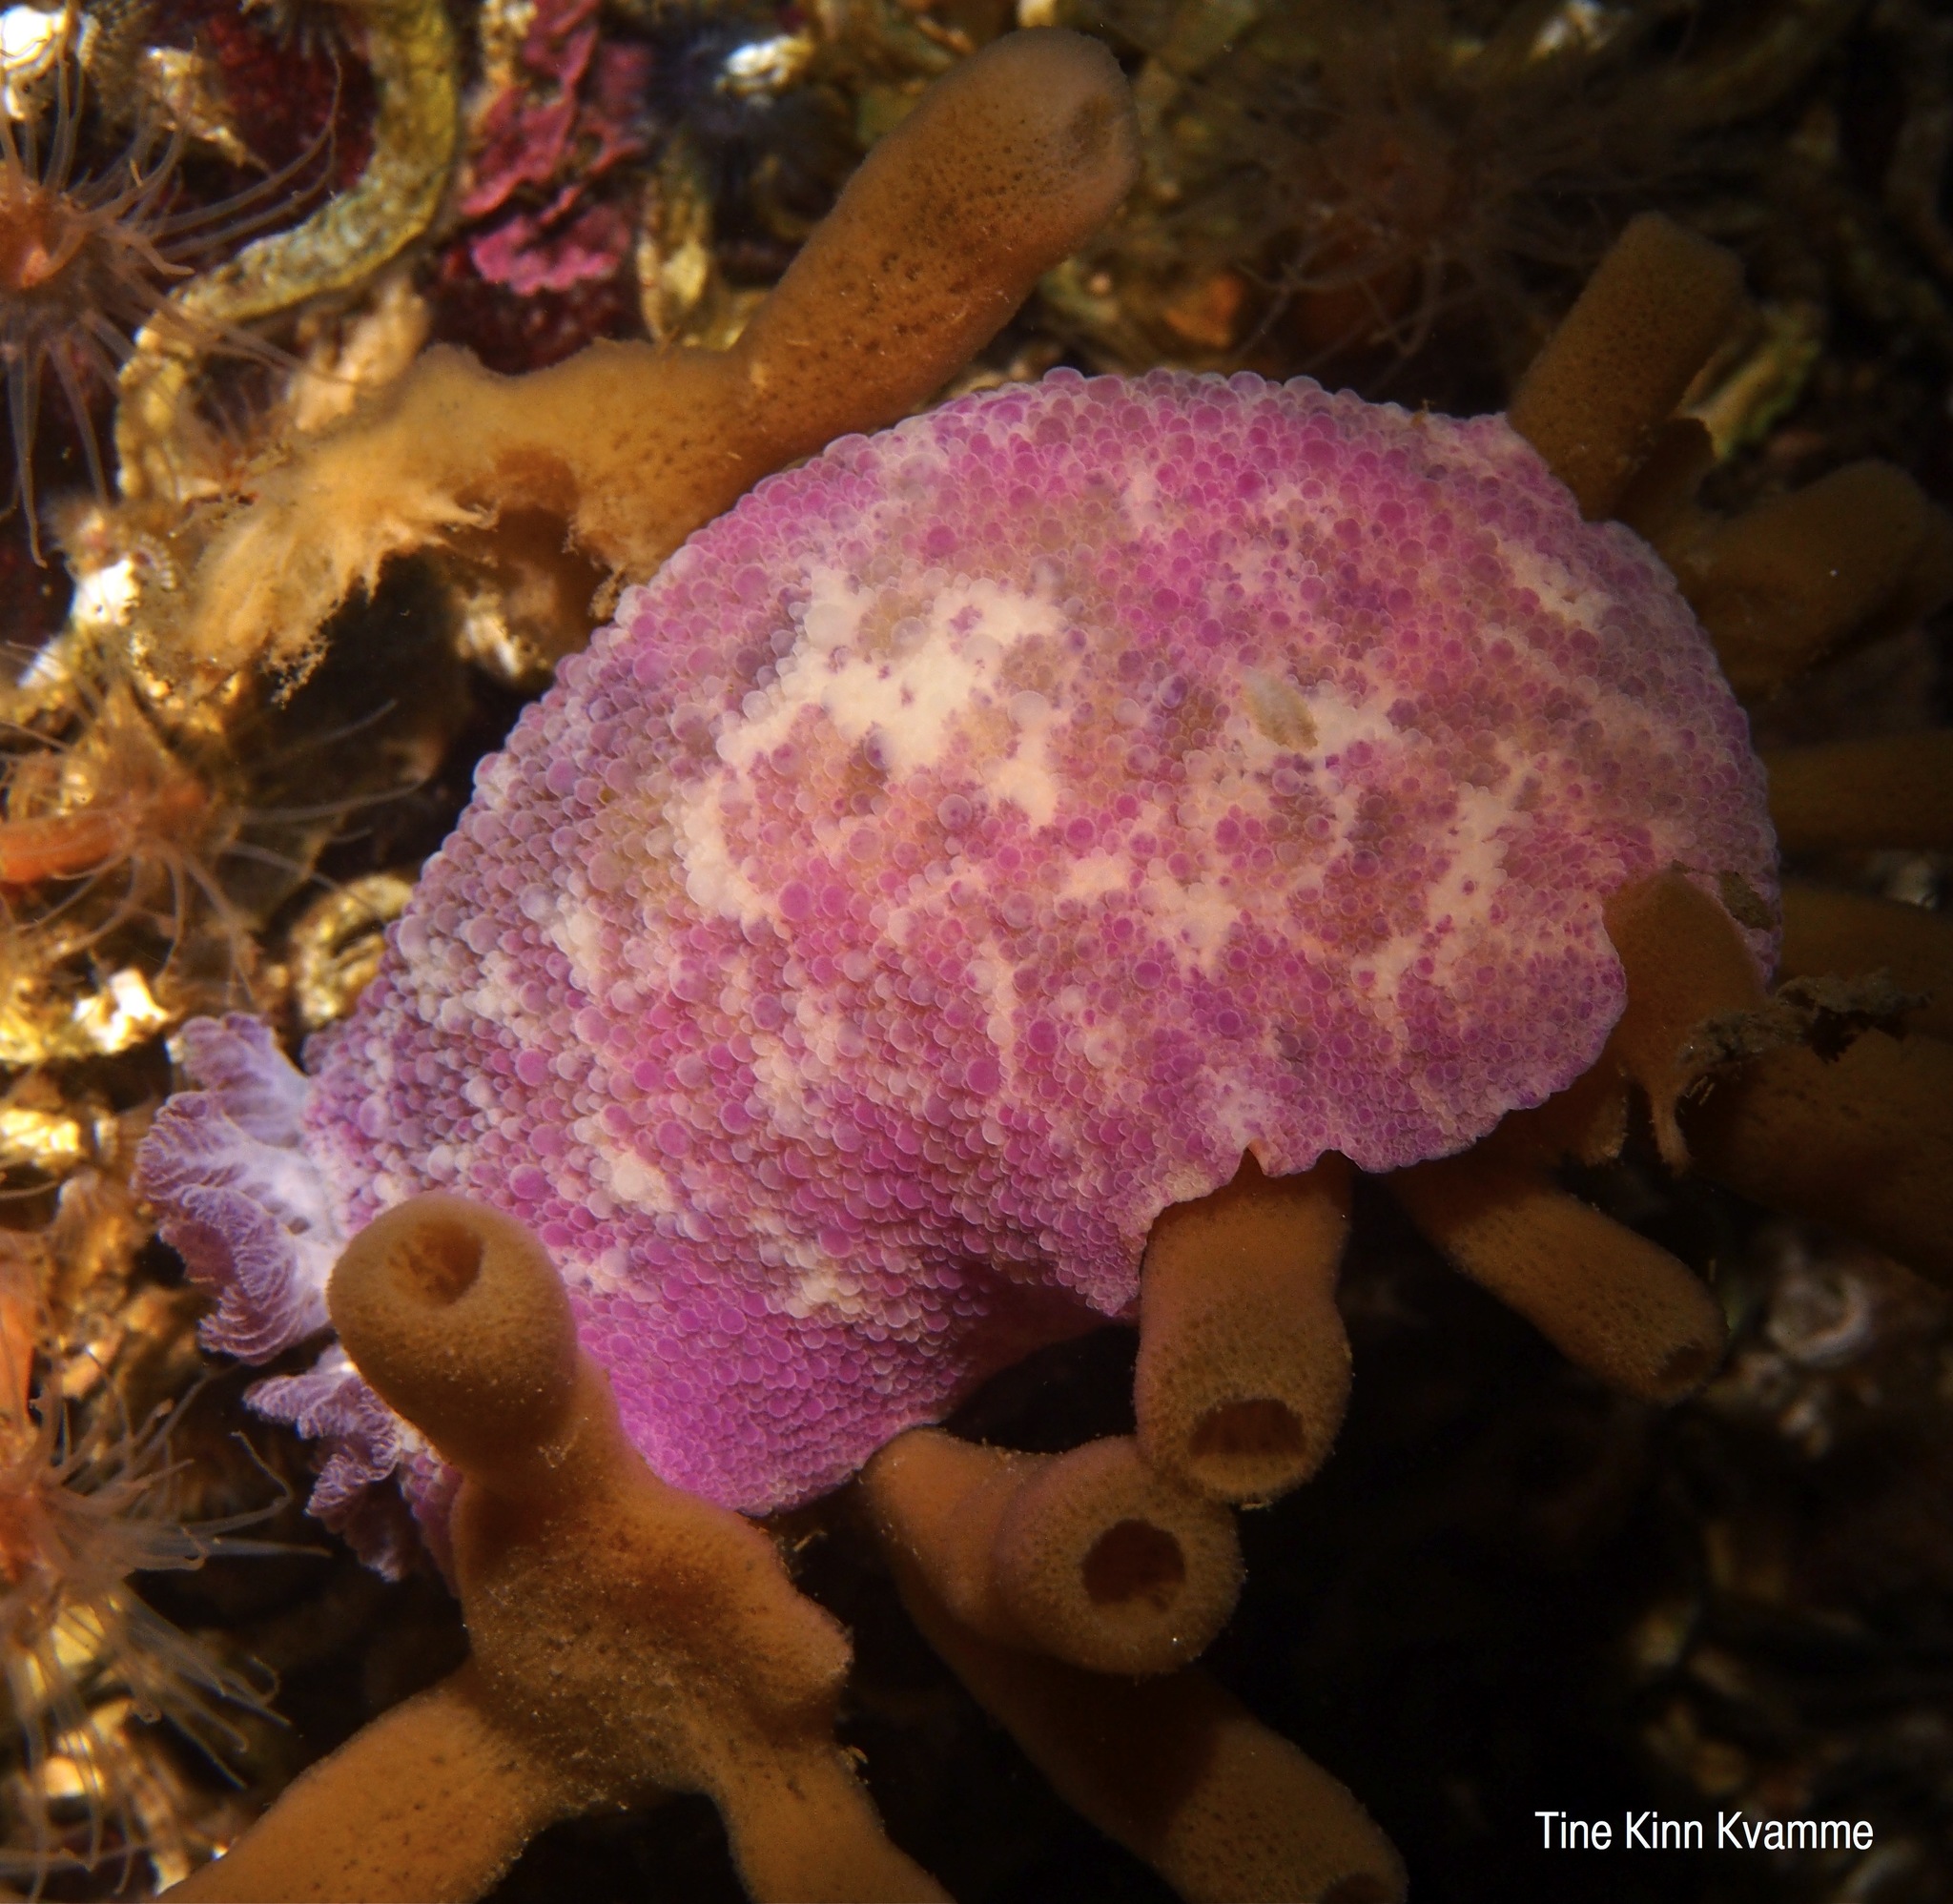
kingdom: Animalia
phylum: Mollusca
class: Gastropoda
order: Nudibranchia
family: Dorididae
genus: Doris
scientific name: Doris pseudoargus
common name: Sea lemon
